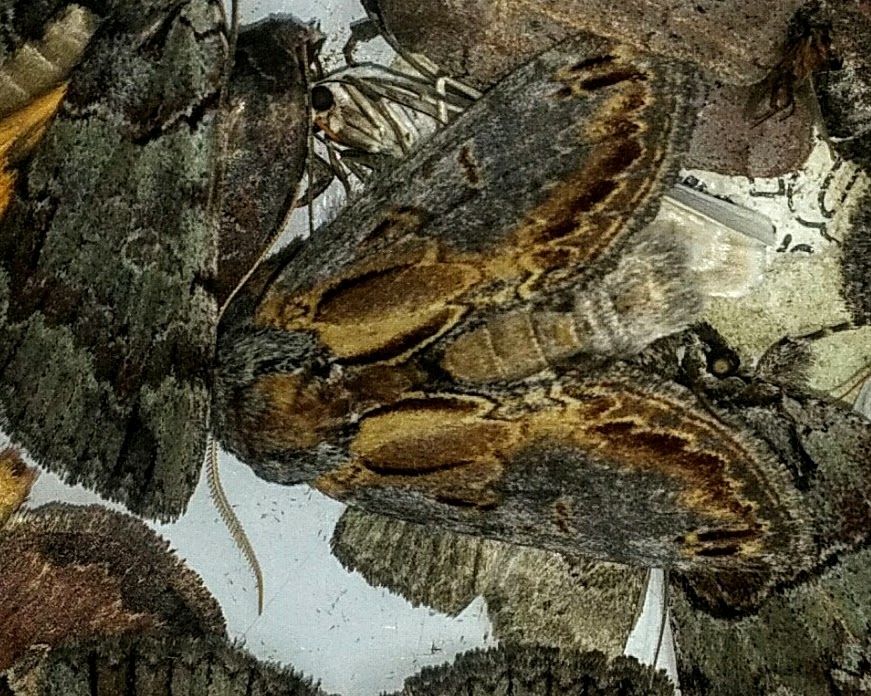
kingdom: Animalia
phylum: Arthropoda
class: Insecta
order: Lepidoptera
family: Notodontidae
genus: Notodonta
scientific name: Notodonta
